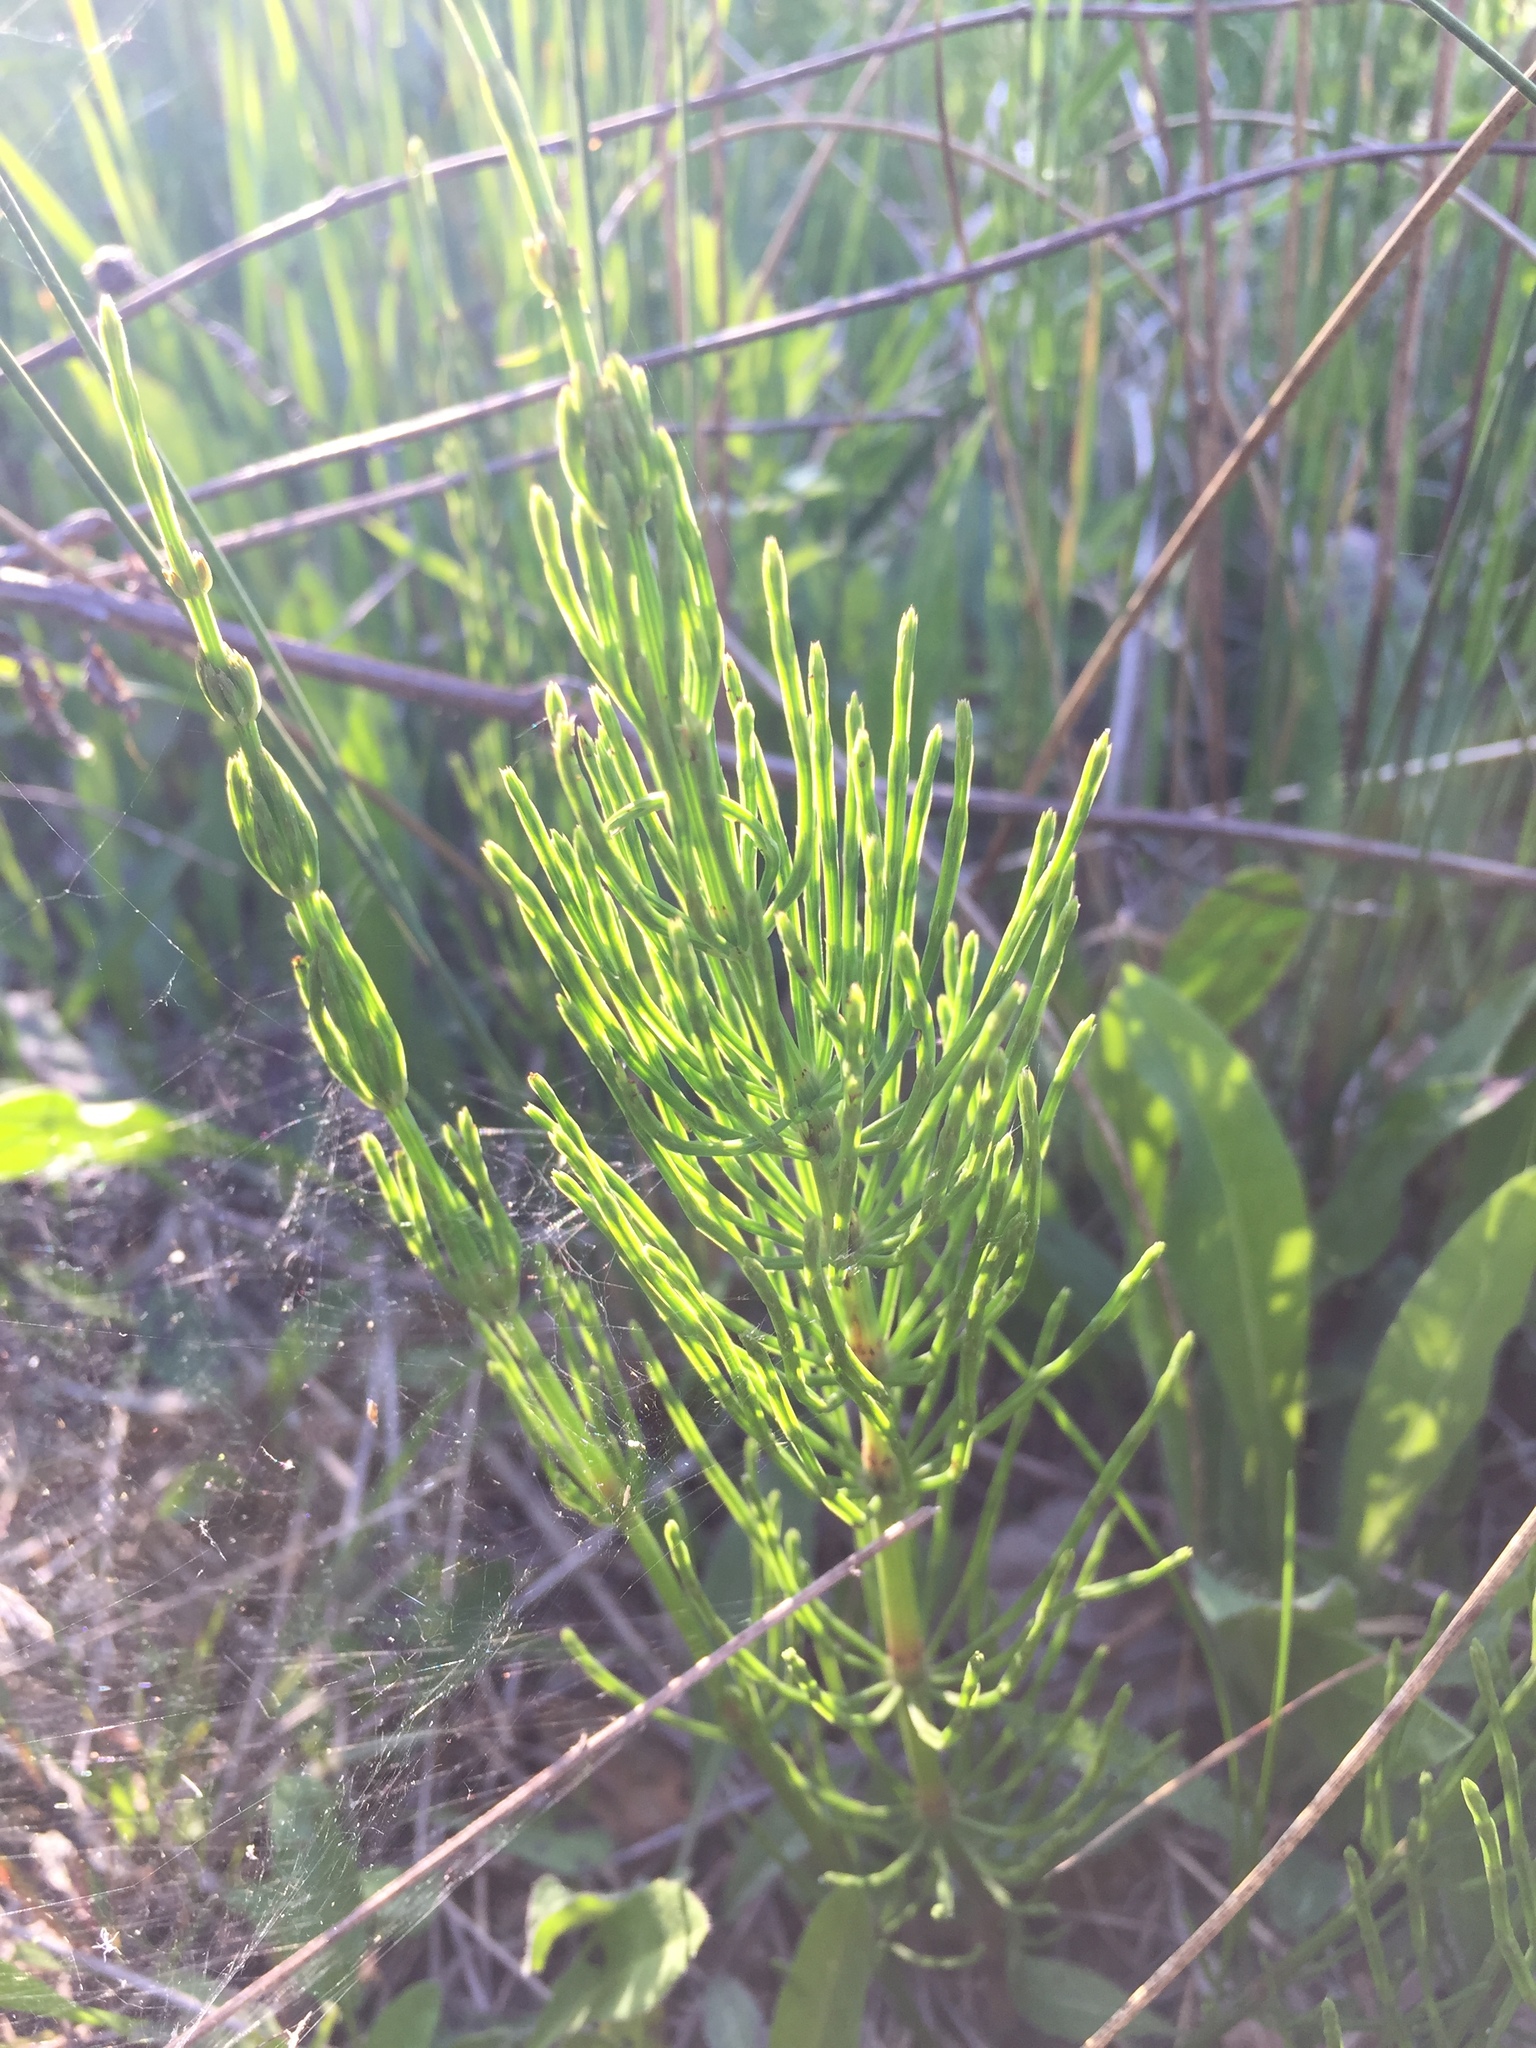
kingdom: Plantae
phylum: Tracheophyta
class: Polypodiopsida
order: Equisetales
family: Equisetaceae
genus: Equisetum
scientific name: Equisetum arvense
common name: Field horsetail
